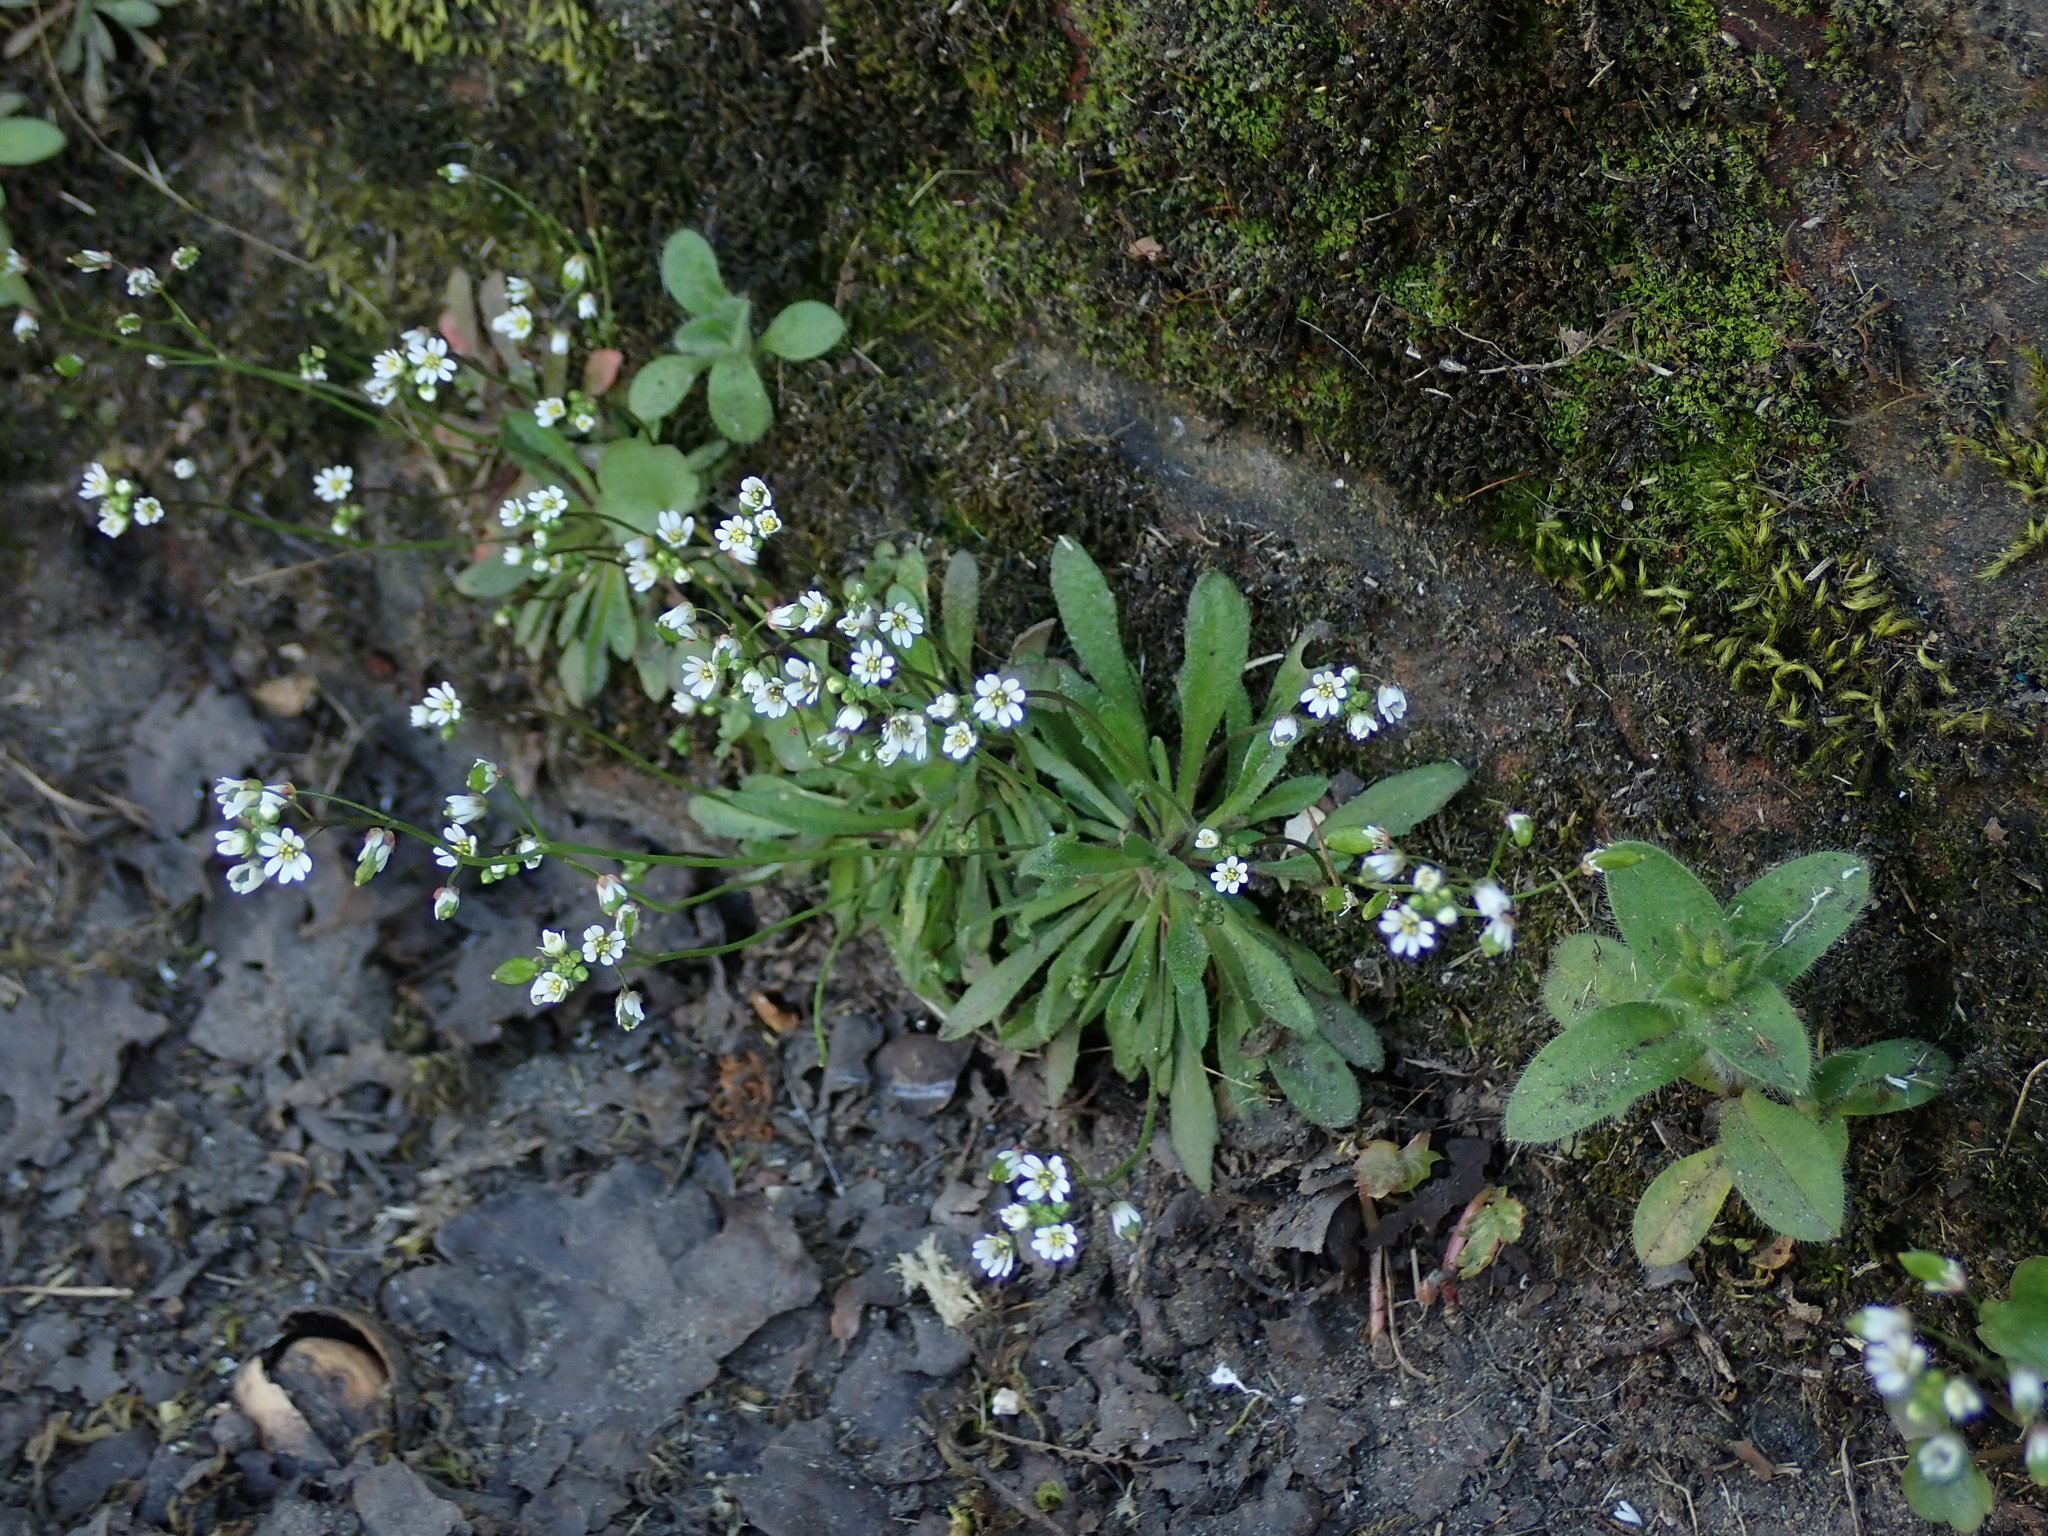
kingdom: Plantae
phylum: Tracheophyta
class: Magnoliopsida
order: Brassicales
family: Brassicaceae
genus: Draba
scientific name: Draba verna
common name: Spring draba
